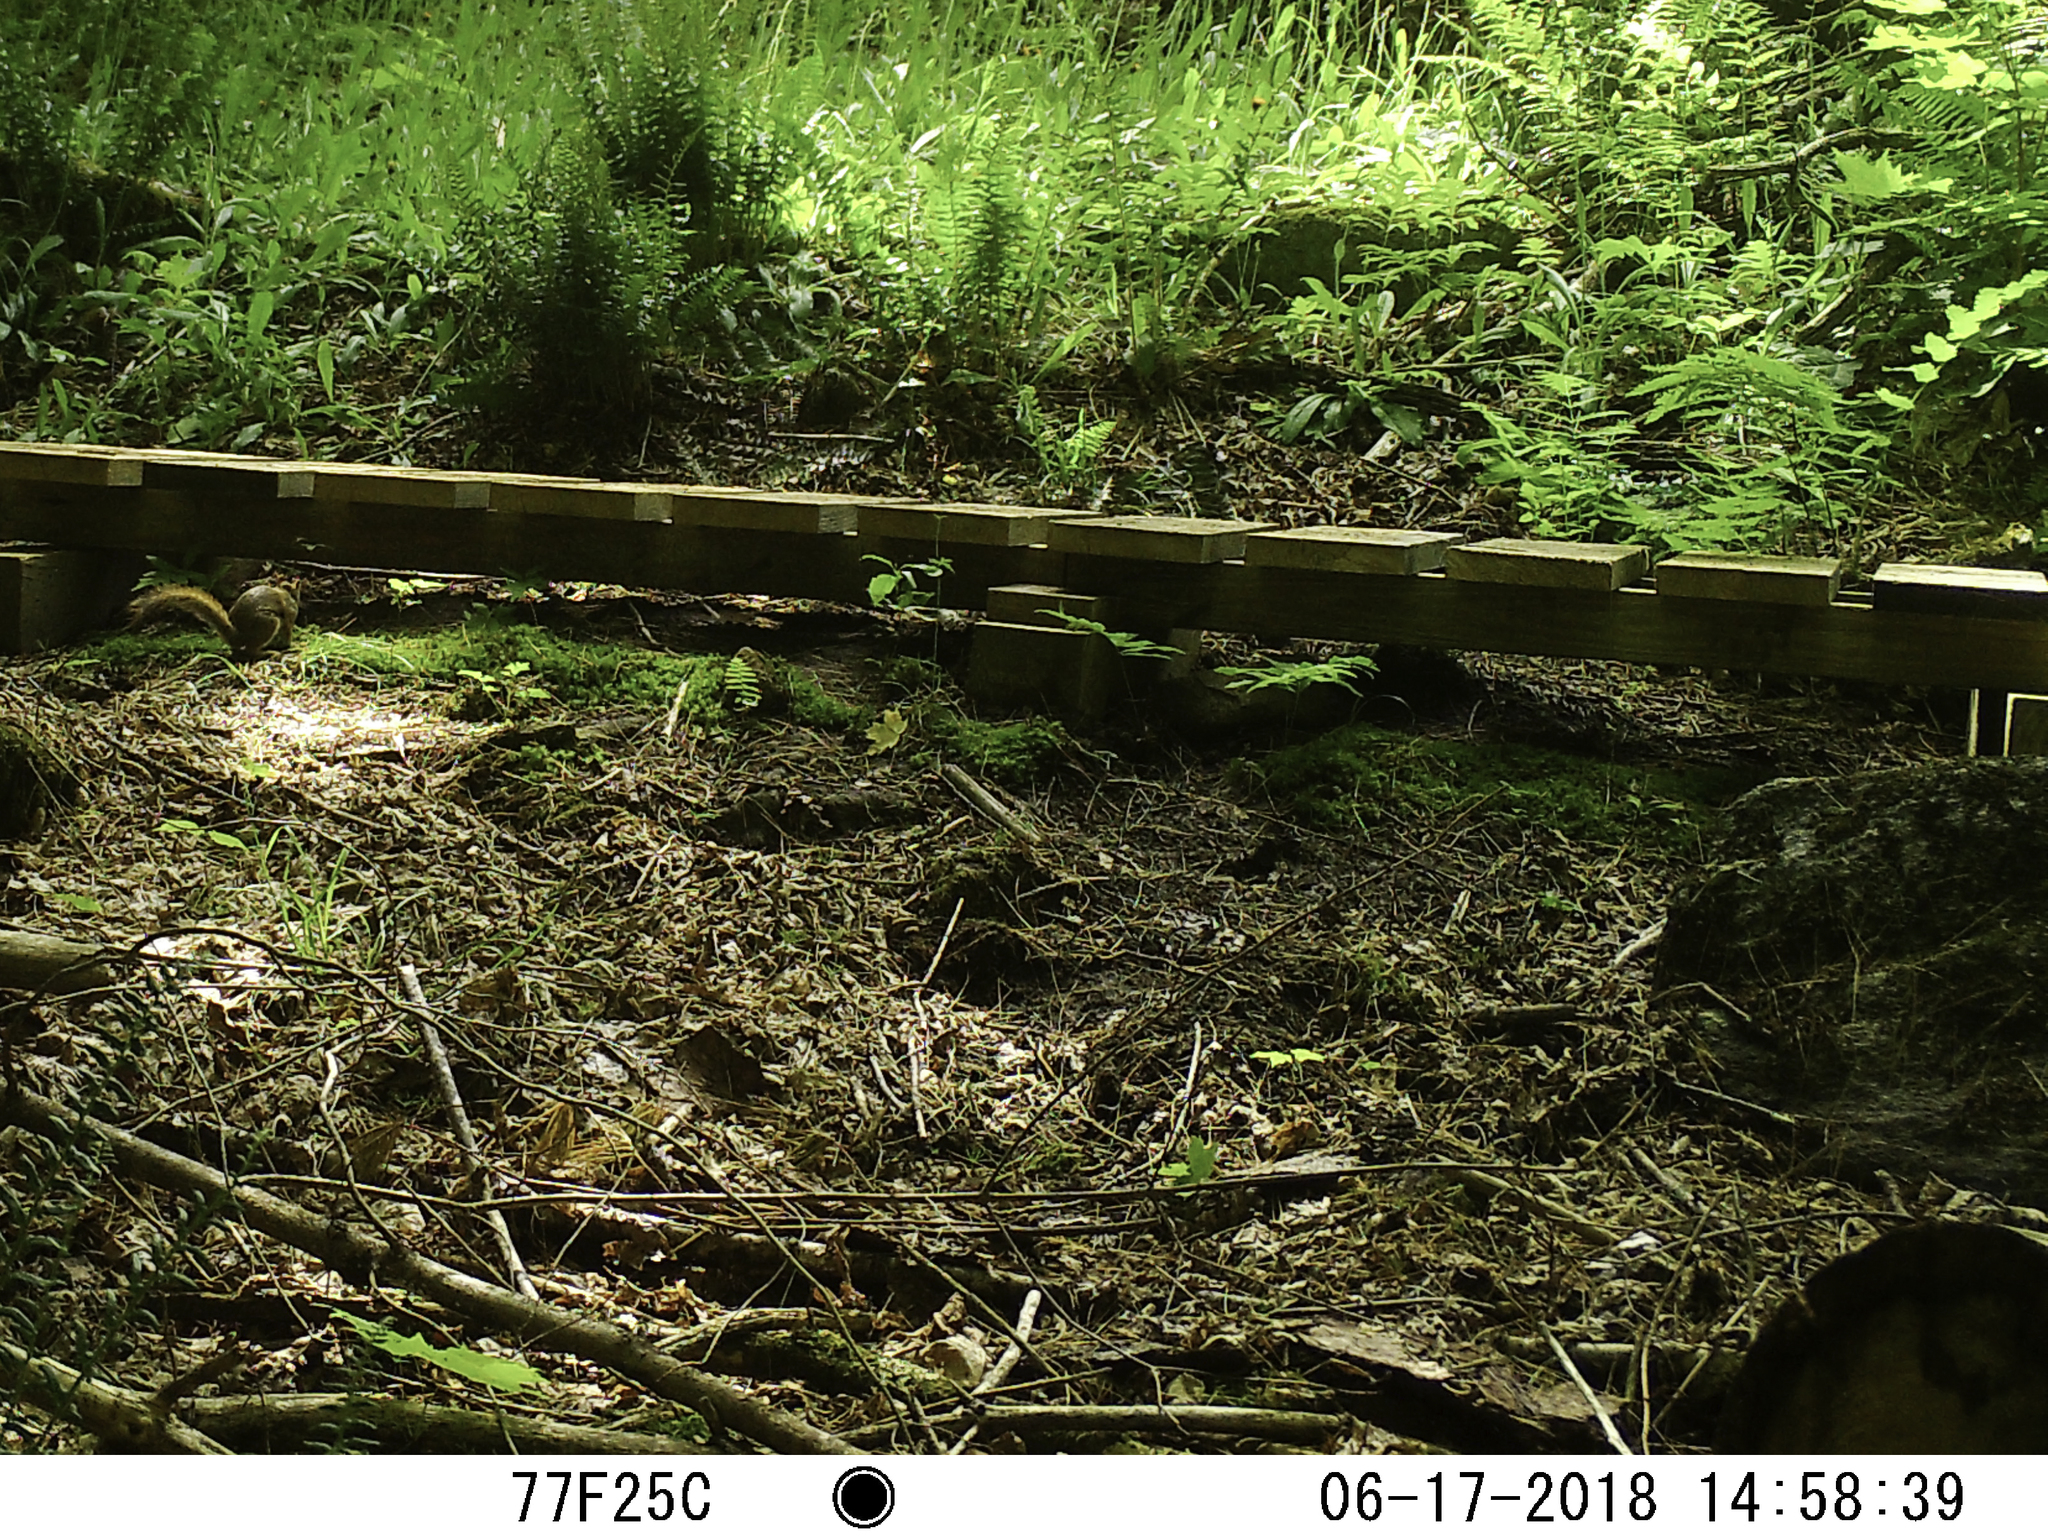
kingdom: Animalia
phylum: Chordata
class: Mammalia
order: Rodentia
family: Sciuridae
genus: Tamiasciurus
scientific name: Tamiasciurus hudsonicus
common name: Red squirrel
